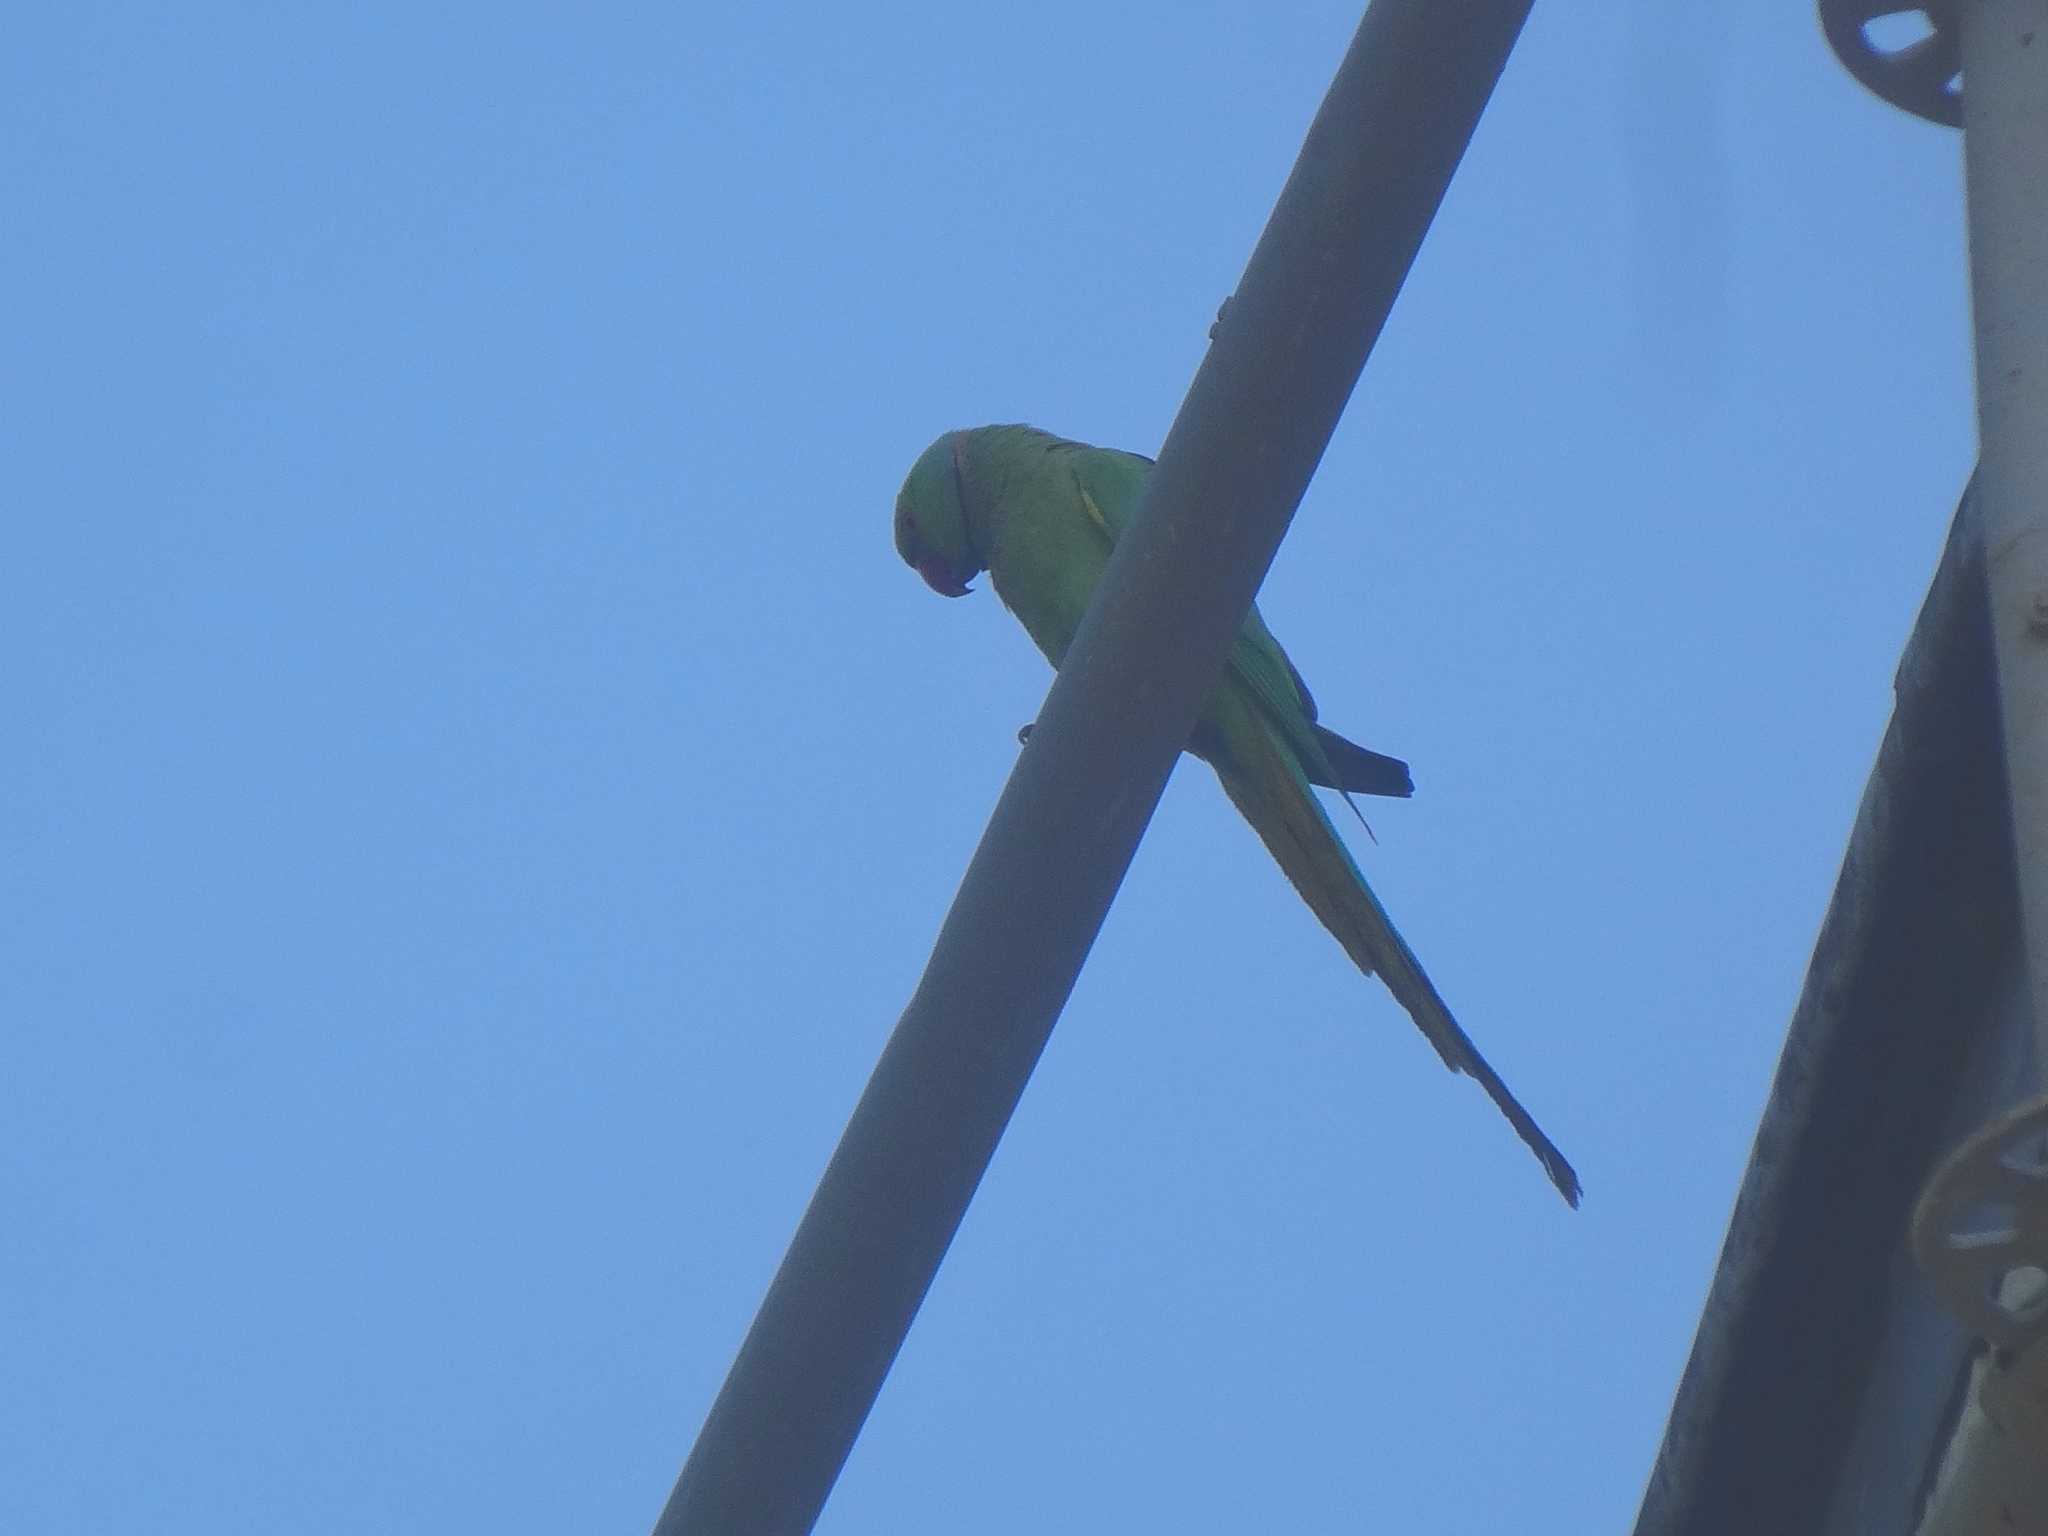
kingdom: Animalia
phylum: Chordata
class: Aves
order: Psittaciformes
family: Psittacidae
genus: Psittacula
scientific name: Psittacula krameri
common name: Rose-ringed parakeet
